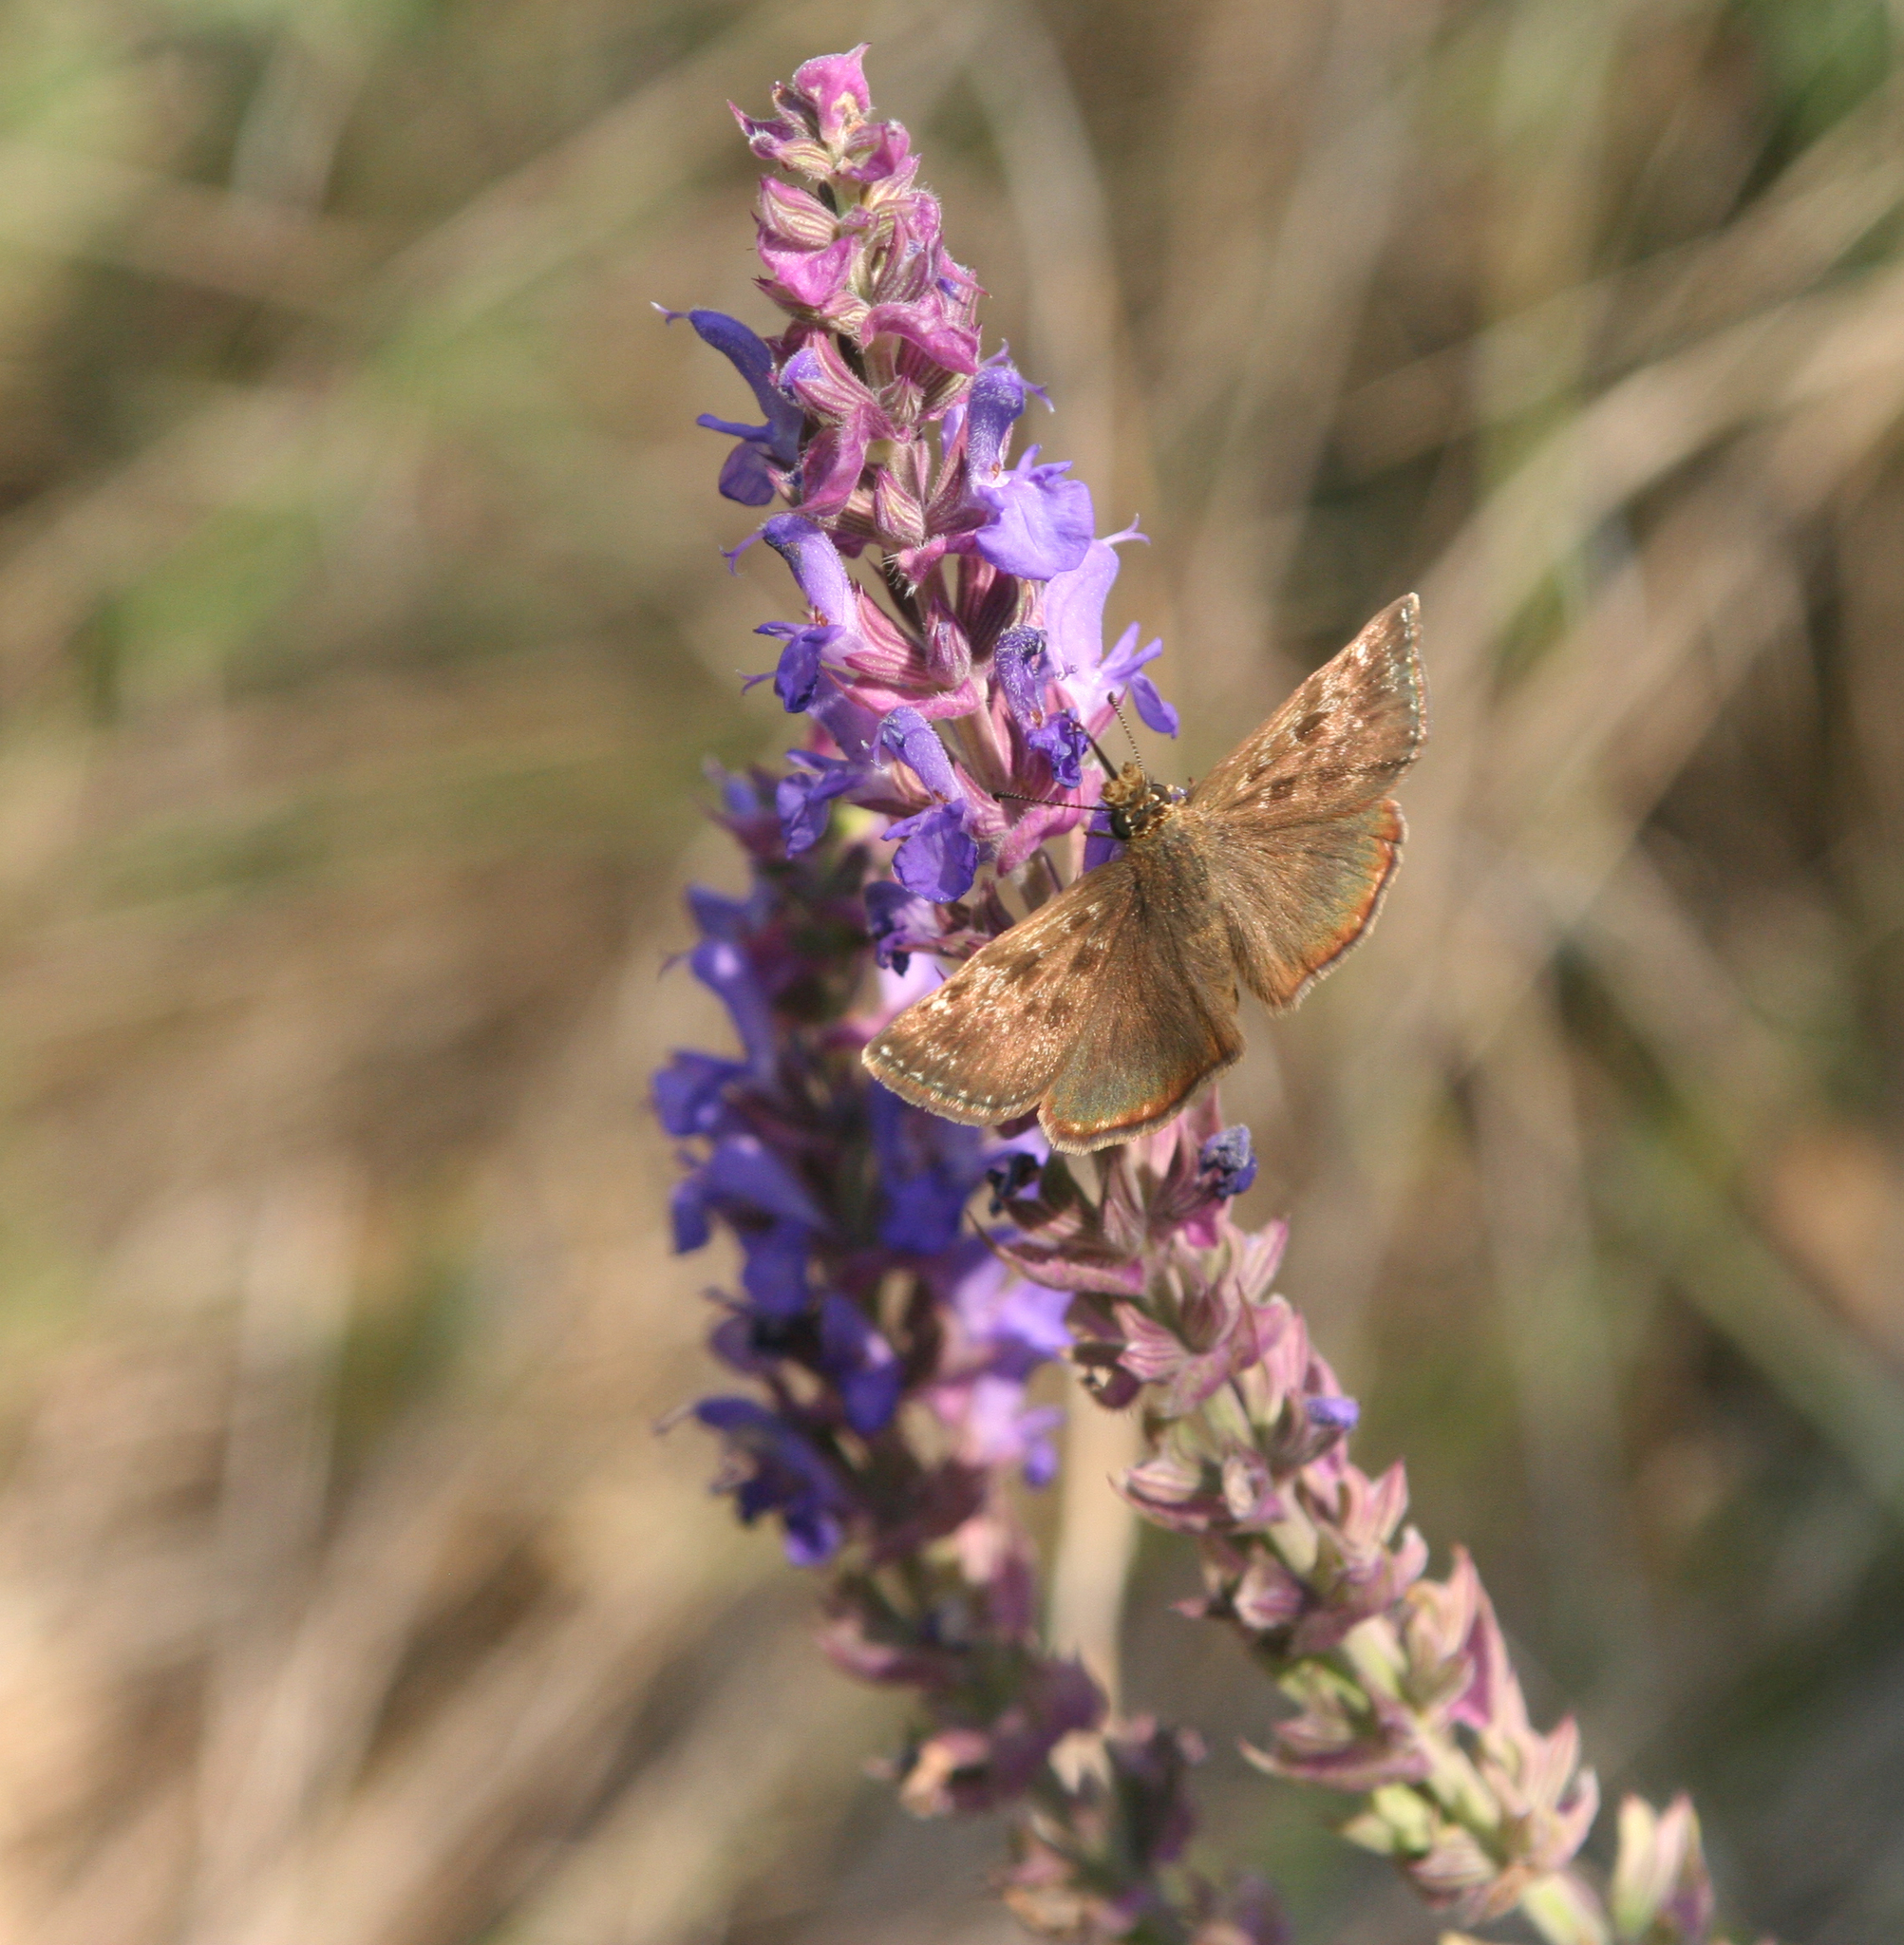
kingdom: Plantae
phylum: Tracheophyta
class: Magnoliopsida
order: Lamiales
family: Lamiaceae
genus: Salvia
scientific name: Salvia nemorosa
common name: Balkan clary
